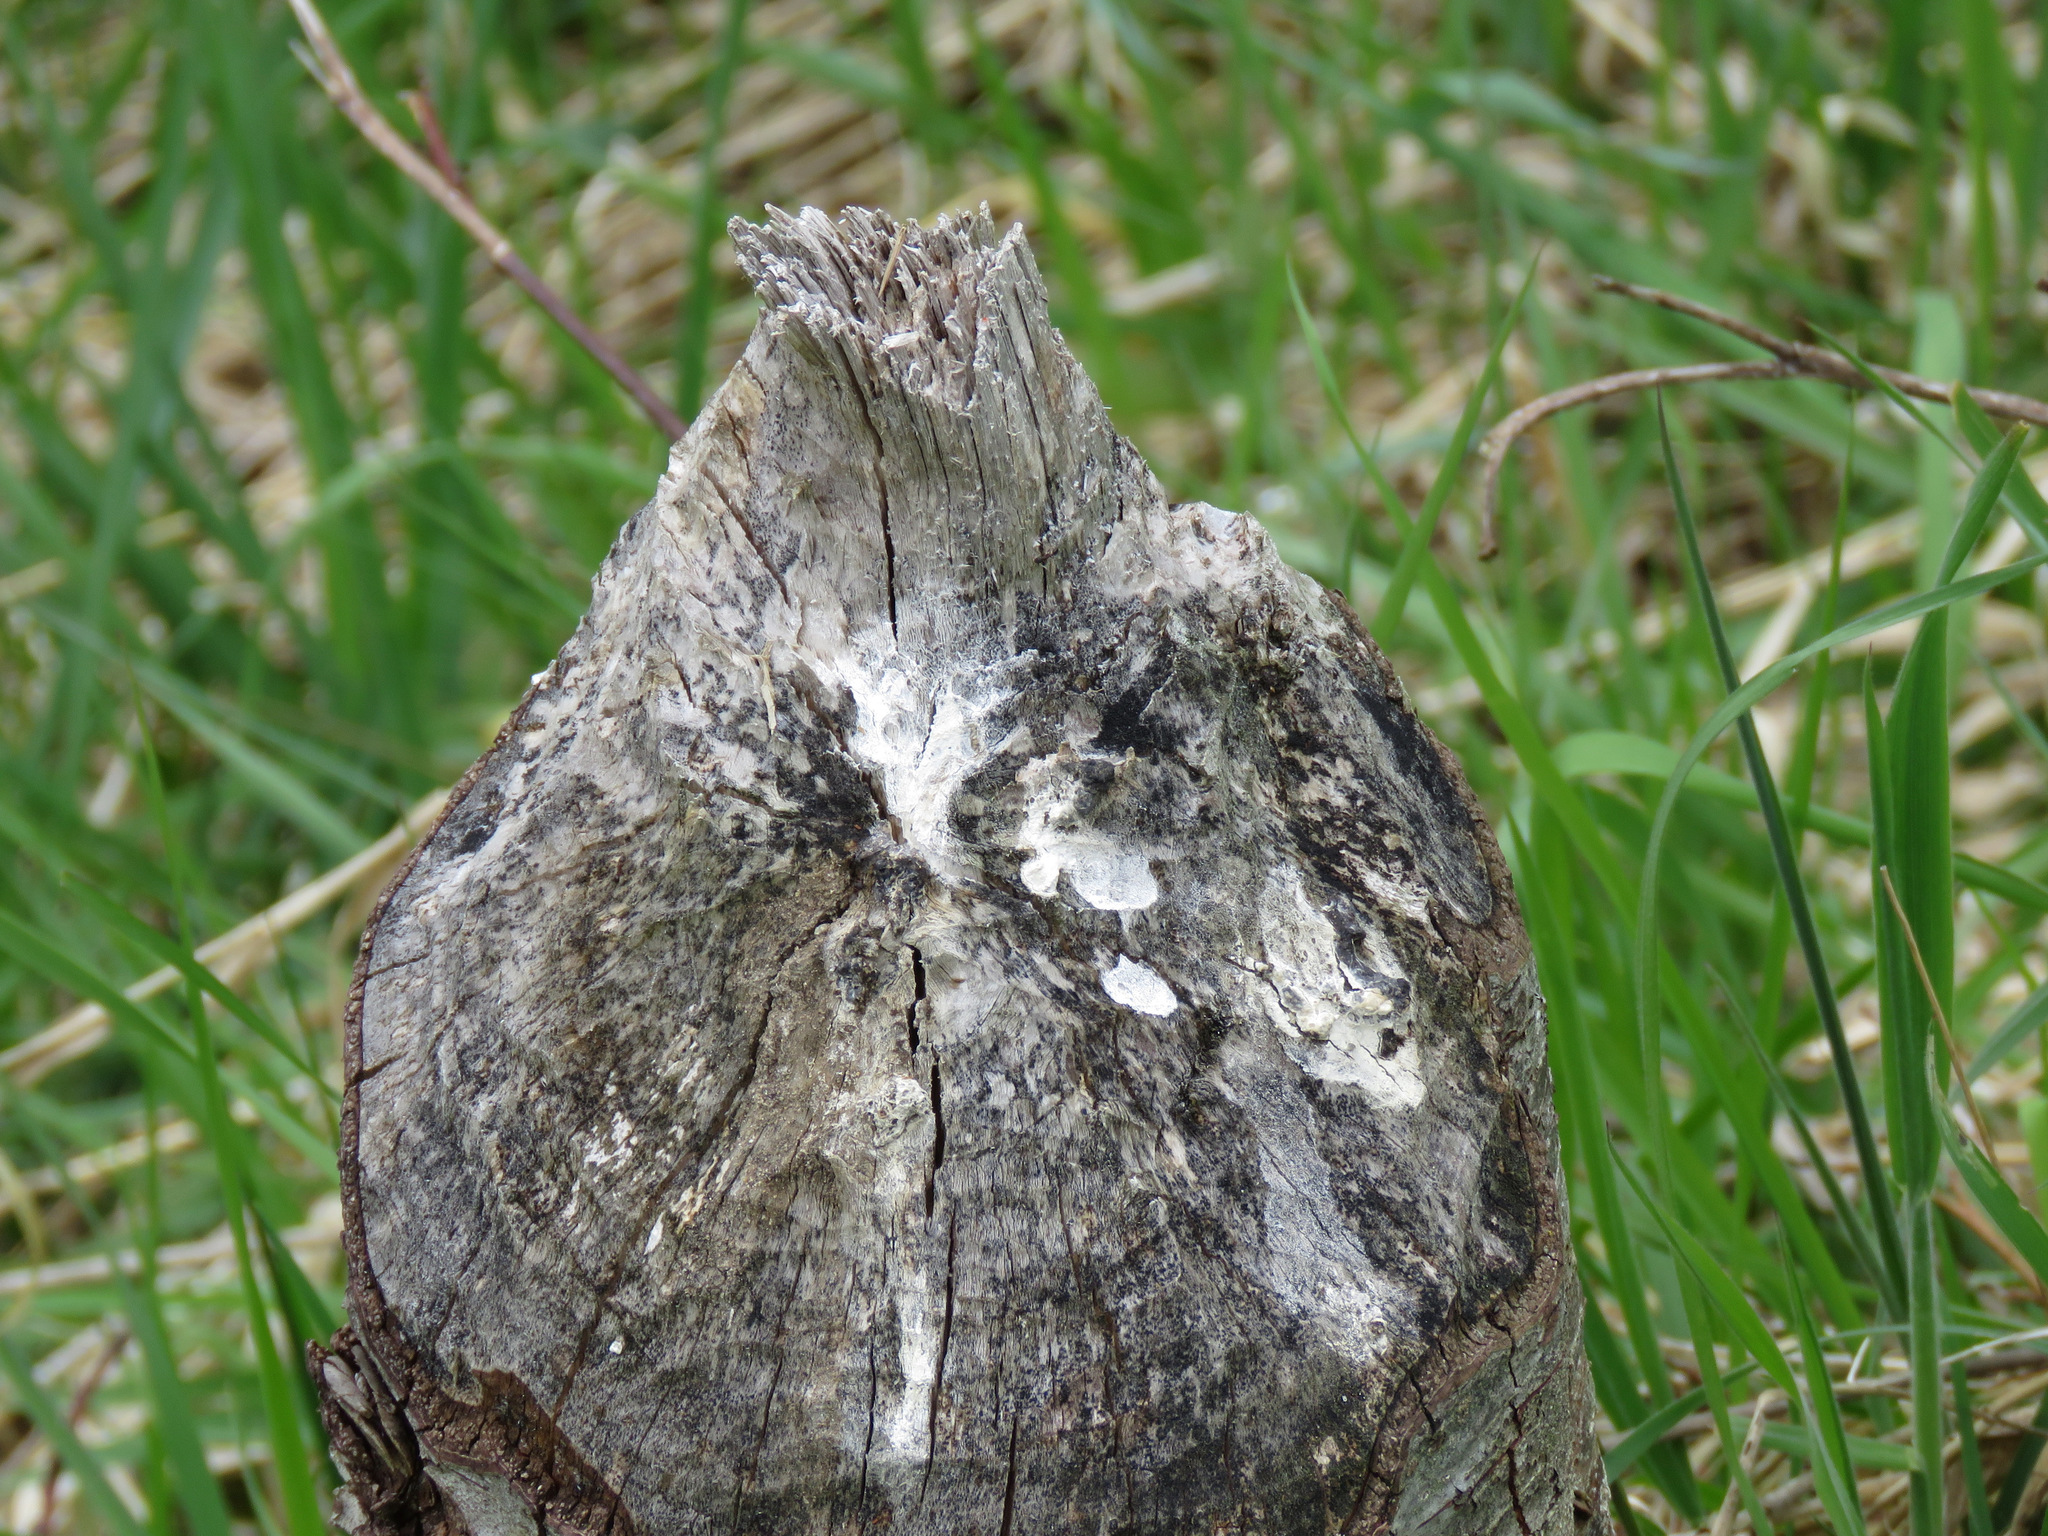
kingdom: Animalia
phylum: Chordata
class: Mammalia
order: Rodentia
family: Castoridae
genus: Castor
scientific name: Castor canadensis
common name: American beaver
